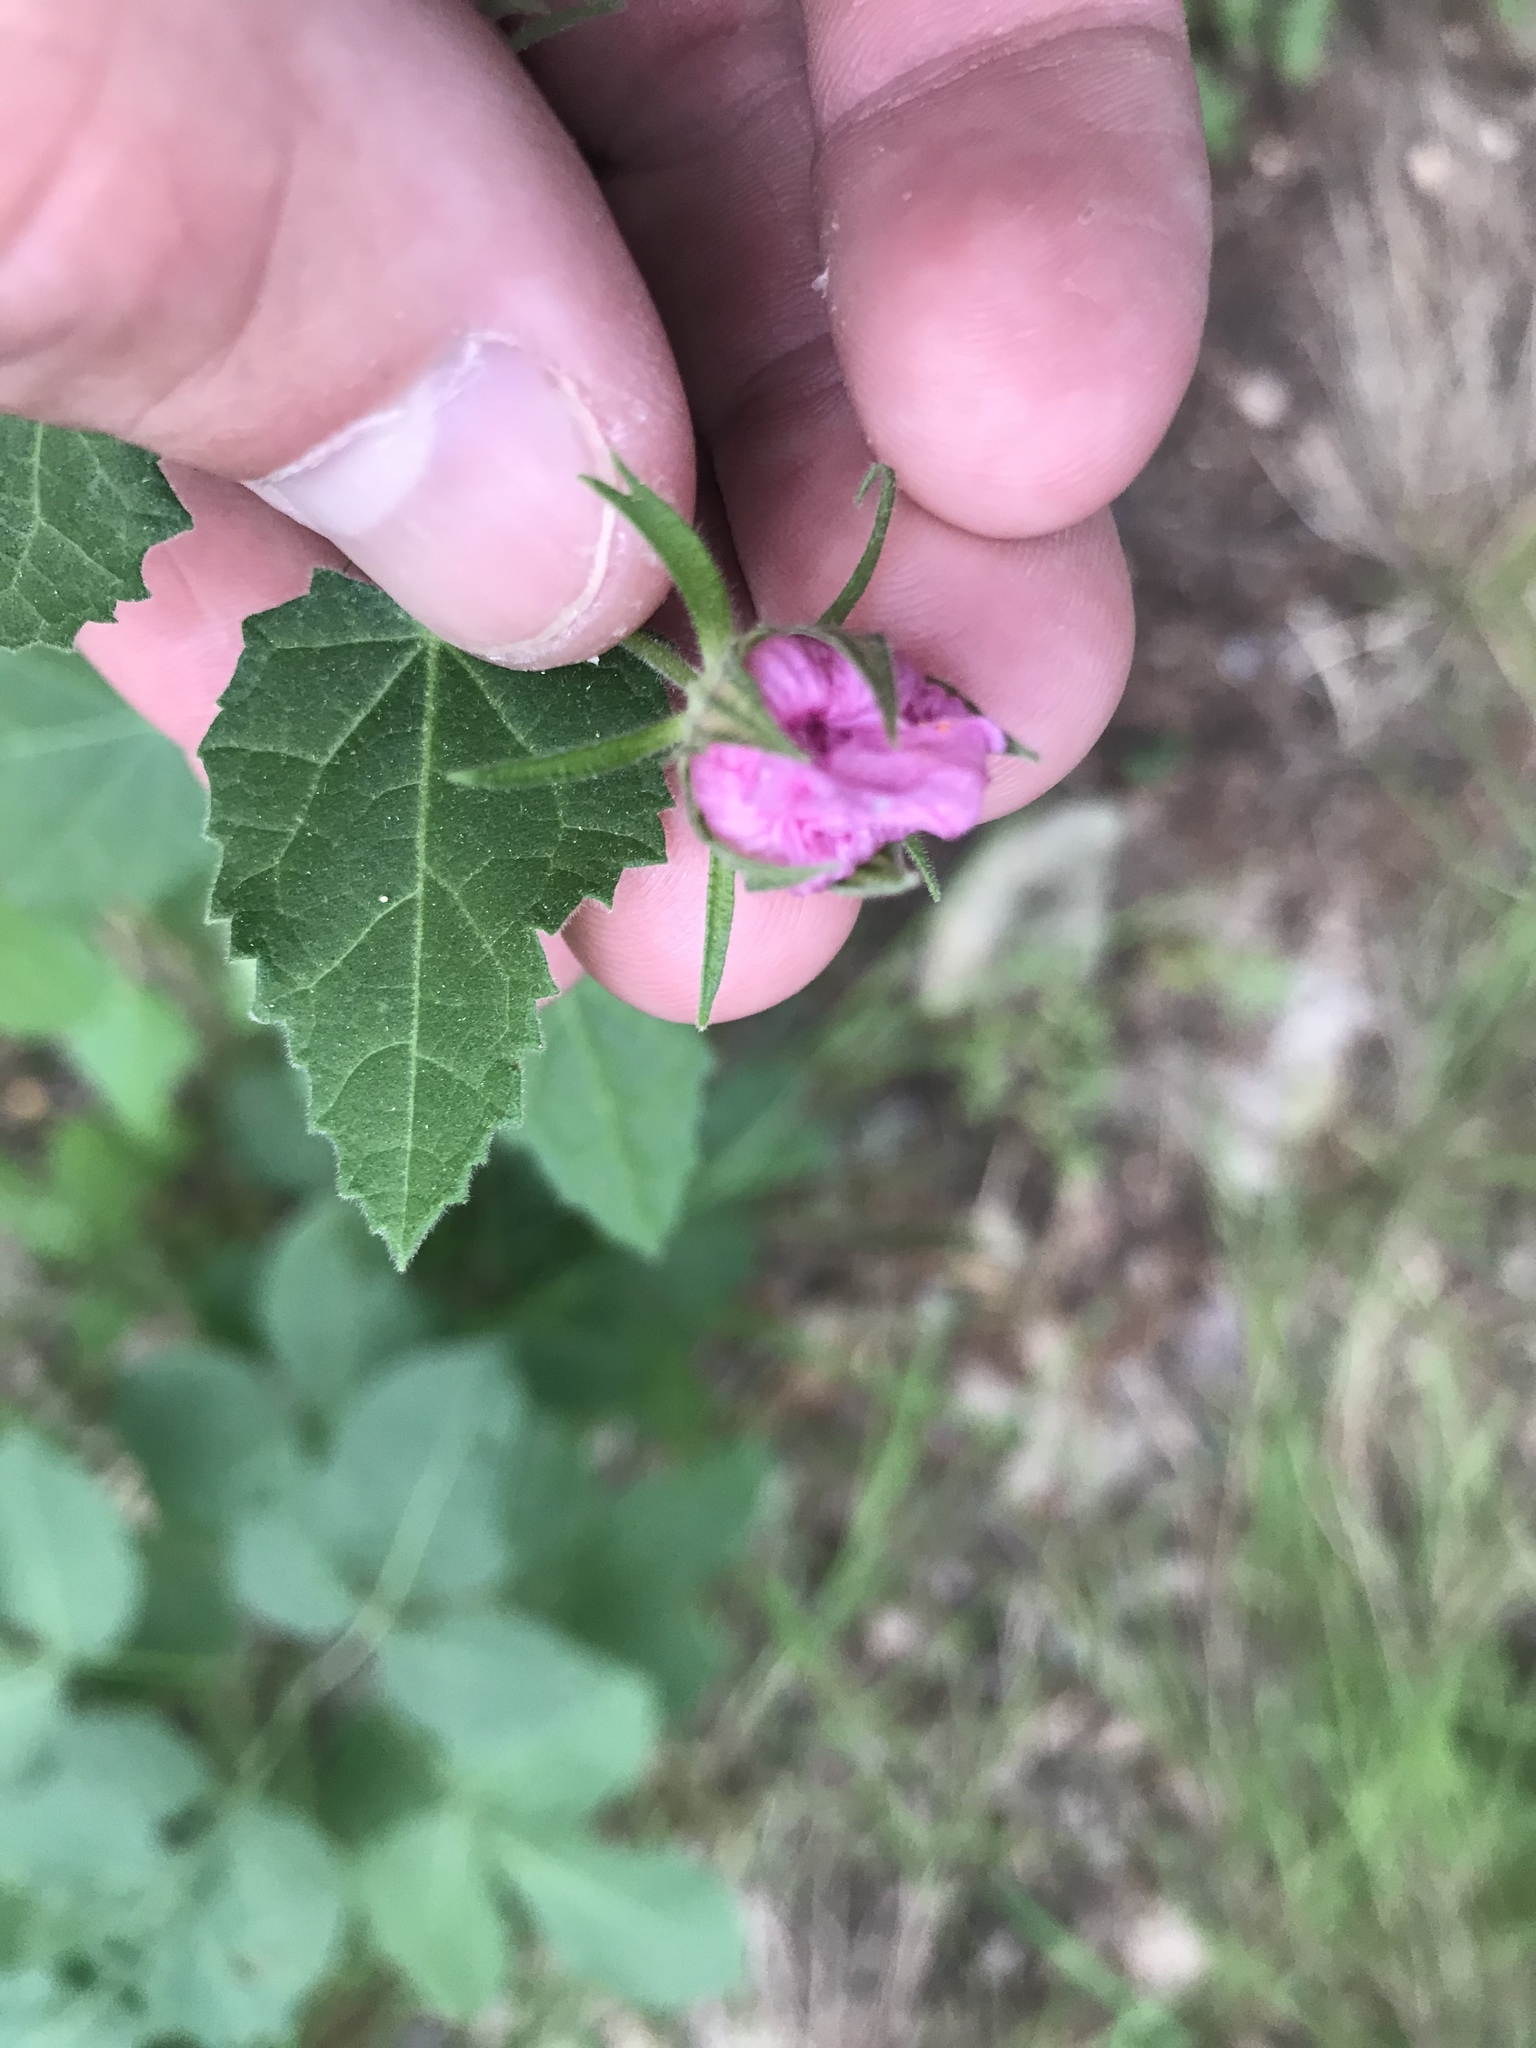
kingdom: Plantae
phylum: Tracheophyta
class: Magnoliopsida
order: Malvales
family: Malvaceae
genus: Pavonia
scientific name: Pavonia lasiopetala
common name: Texas swamp-mallow
